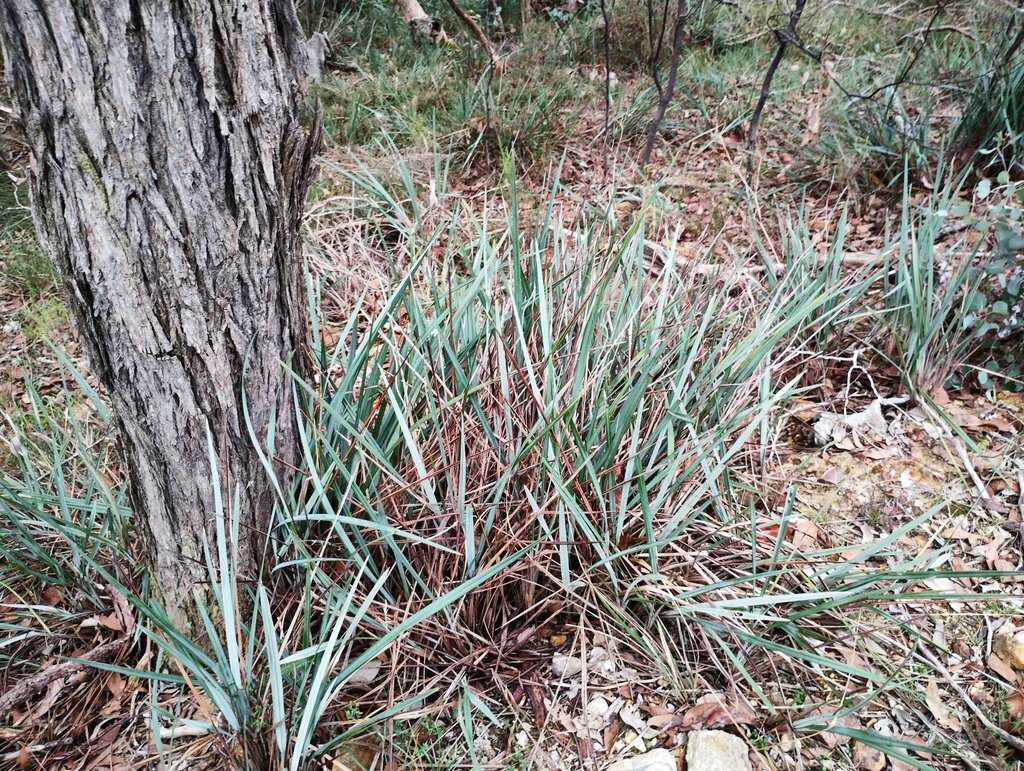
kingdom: Plantae
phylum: Tracheophyta
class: Liliopsida
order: Asparagales
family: Asphodelaceae
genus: Dianella
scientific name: Dianella revoluta
